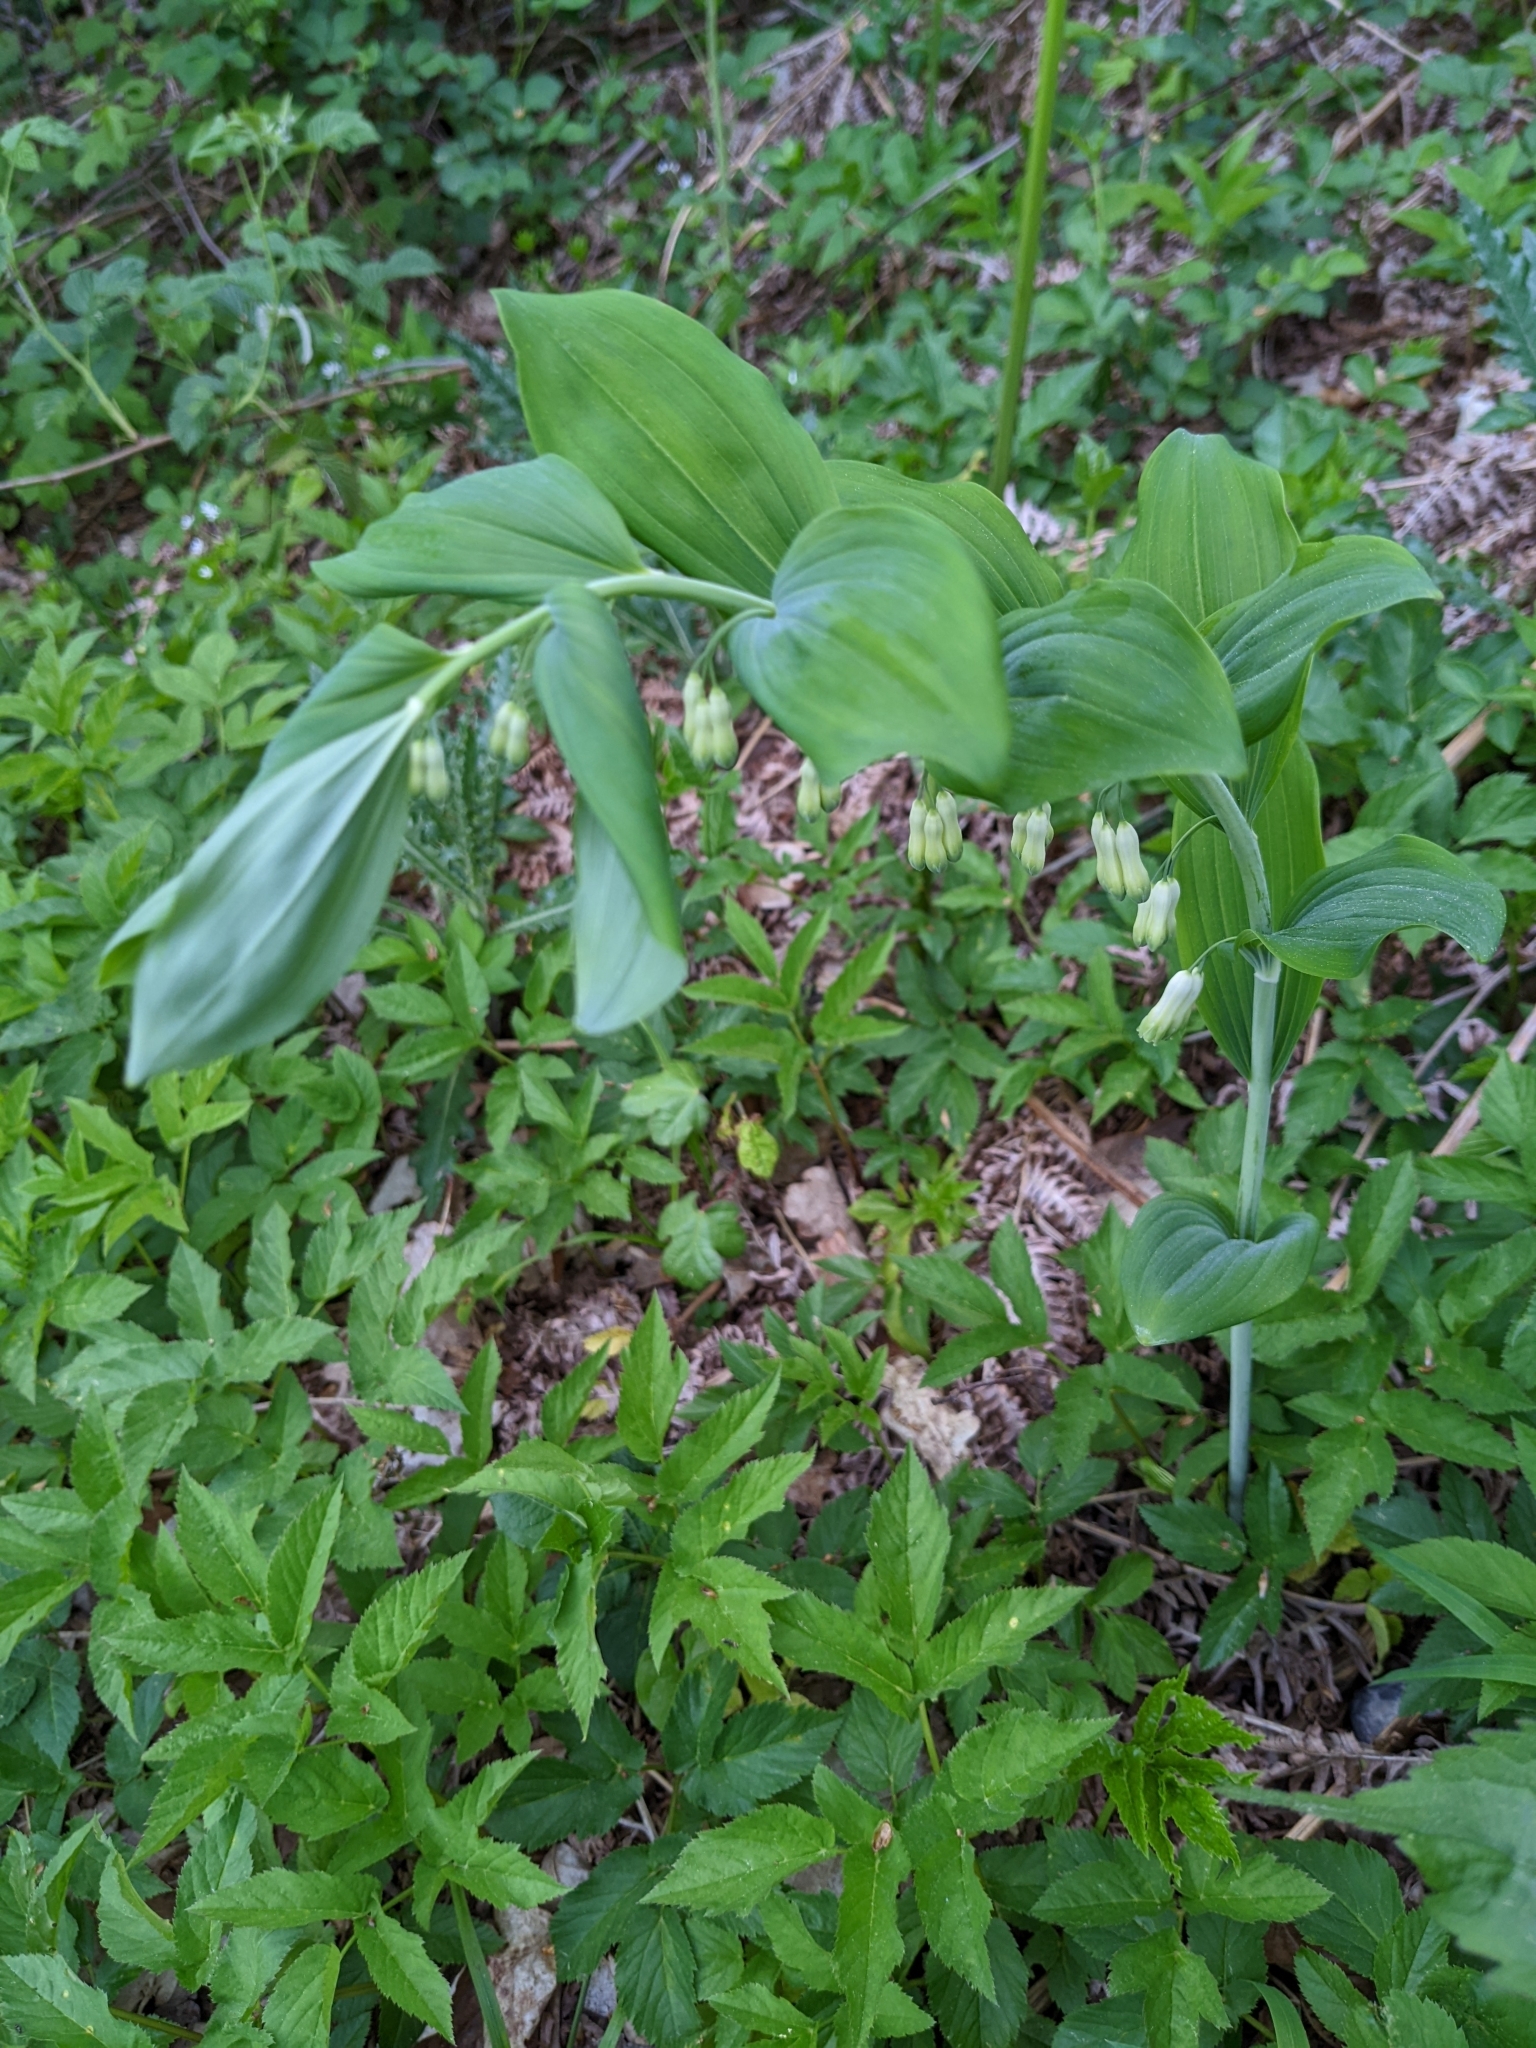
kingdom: Plantae
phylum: Tracheophyta
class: Liliopsida
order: Asparagales
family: Asparagaceae
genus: Polygonatum
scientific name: Polygonatum multiflorum
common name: Solomon's-seal
